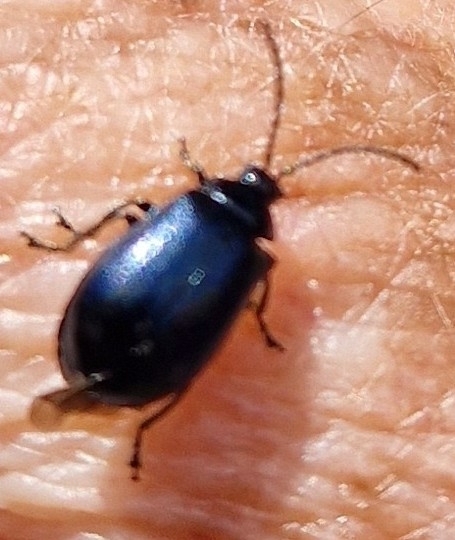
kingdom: Animalia
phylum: Arthropoda
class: Insecta
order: Coleoptera
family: Chrysomelidae
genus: Agelastica
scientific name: Agelastica alni
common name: Alder leaf beetle
